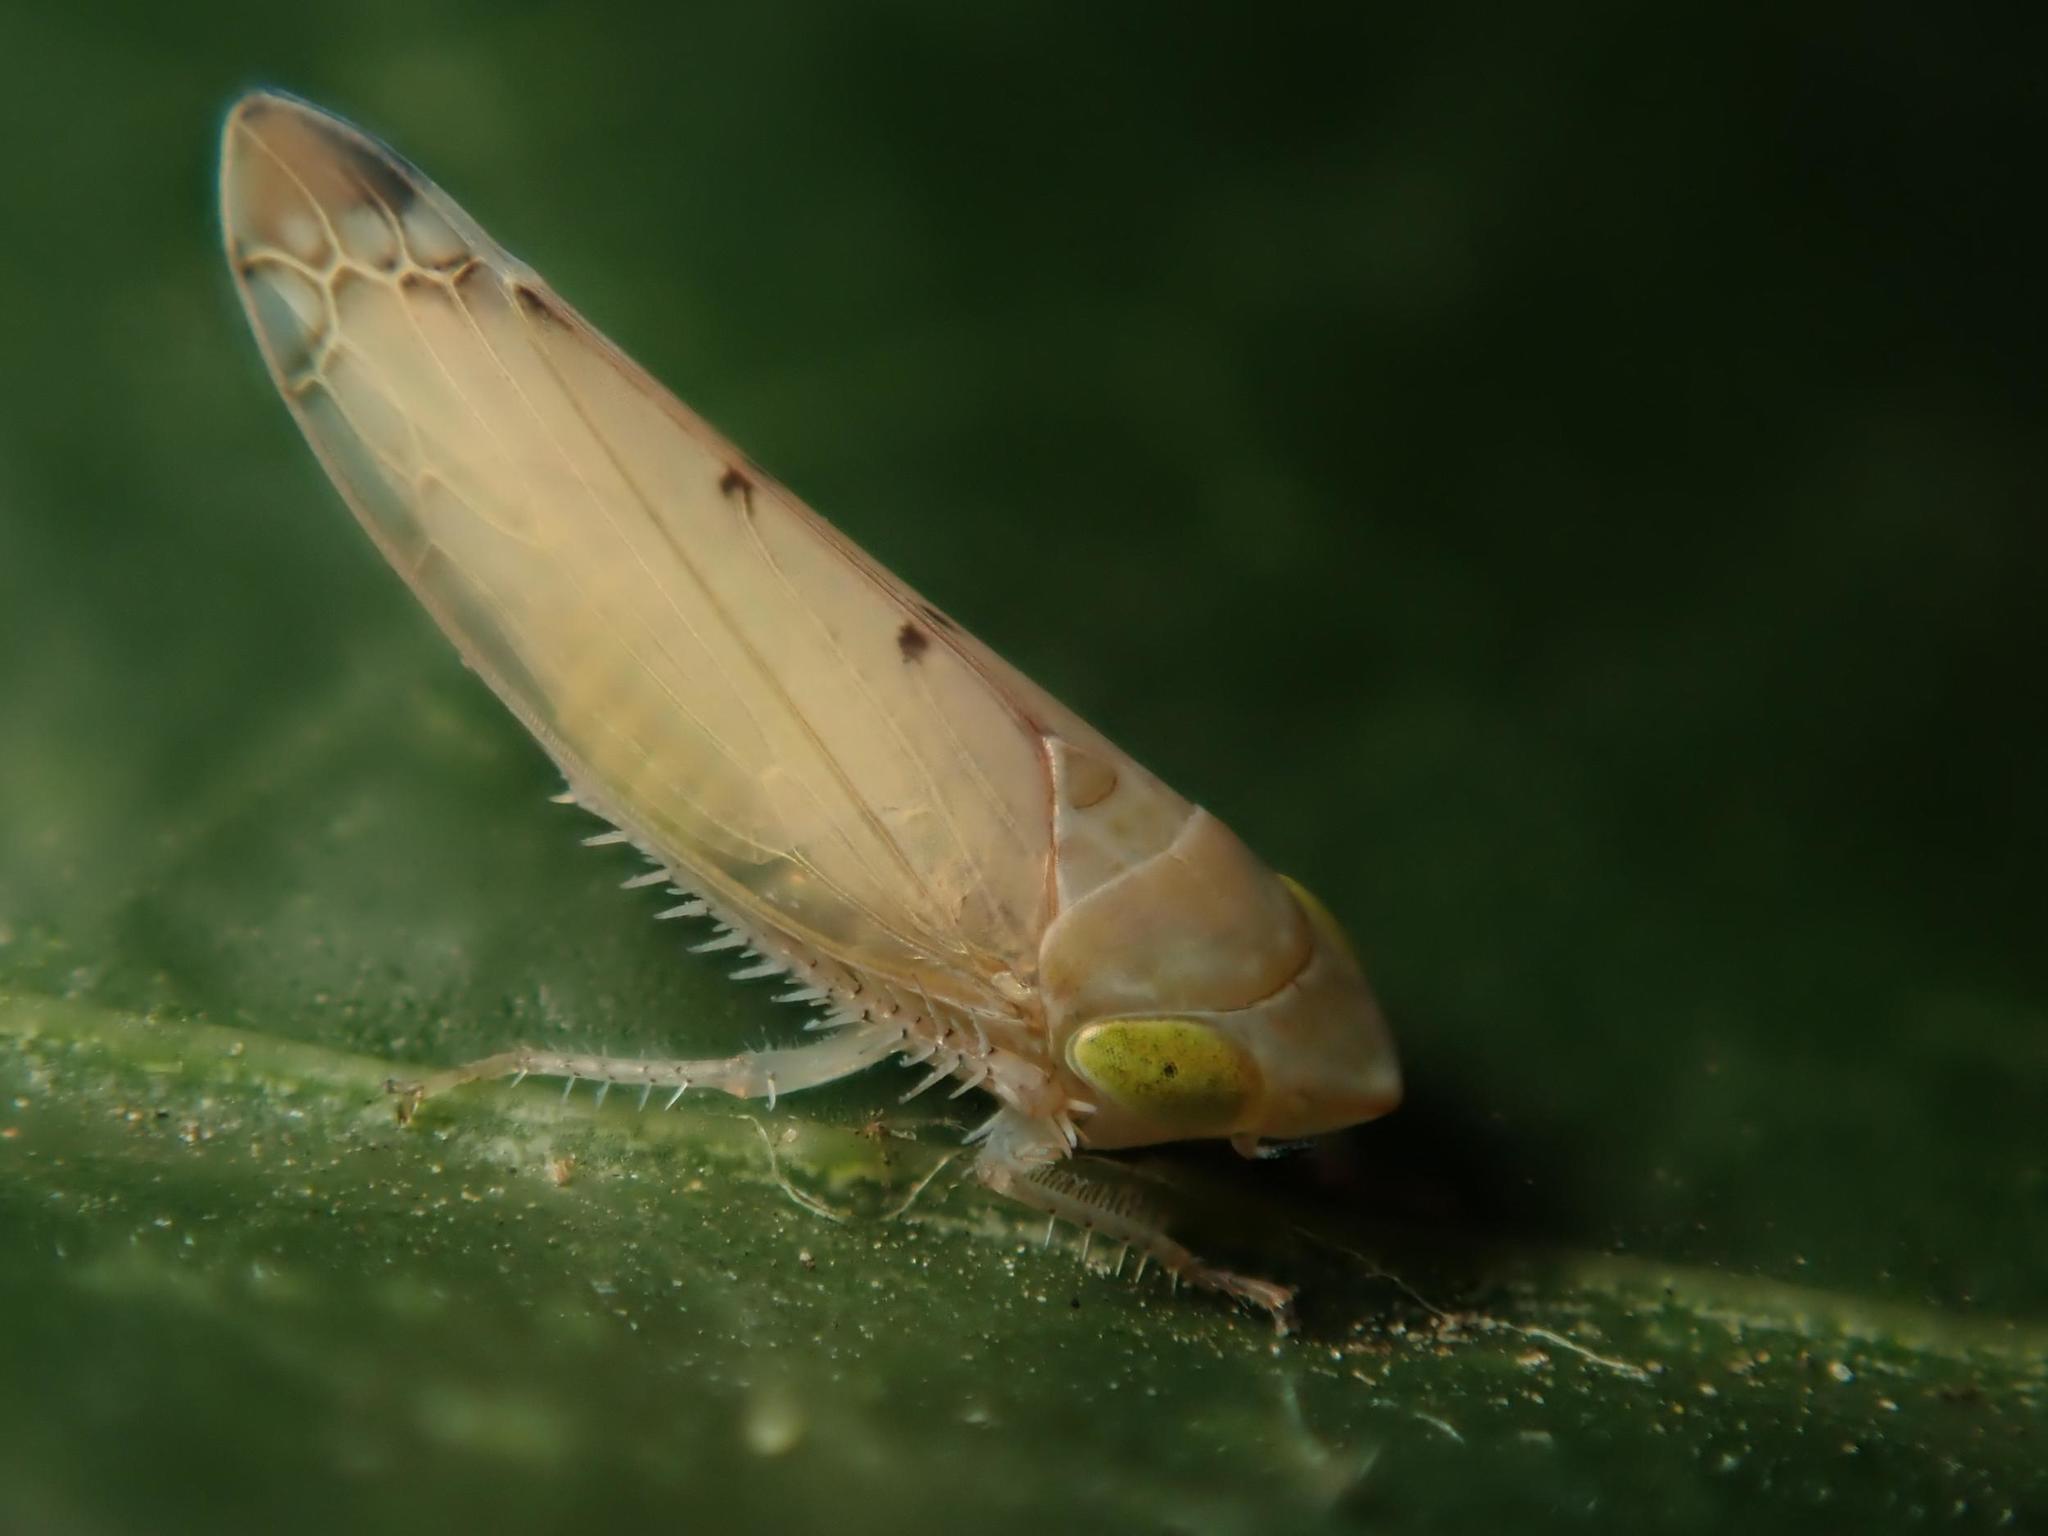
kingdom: Animalia
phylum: Arthropoda
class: Insecta
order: Hemiptera
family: Cicadellidae
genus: Synophropsis
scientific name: Synophropsis lauri
